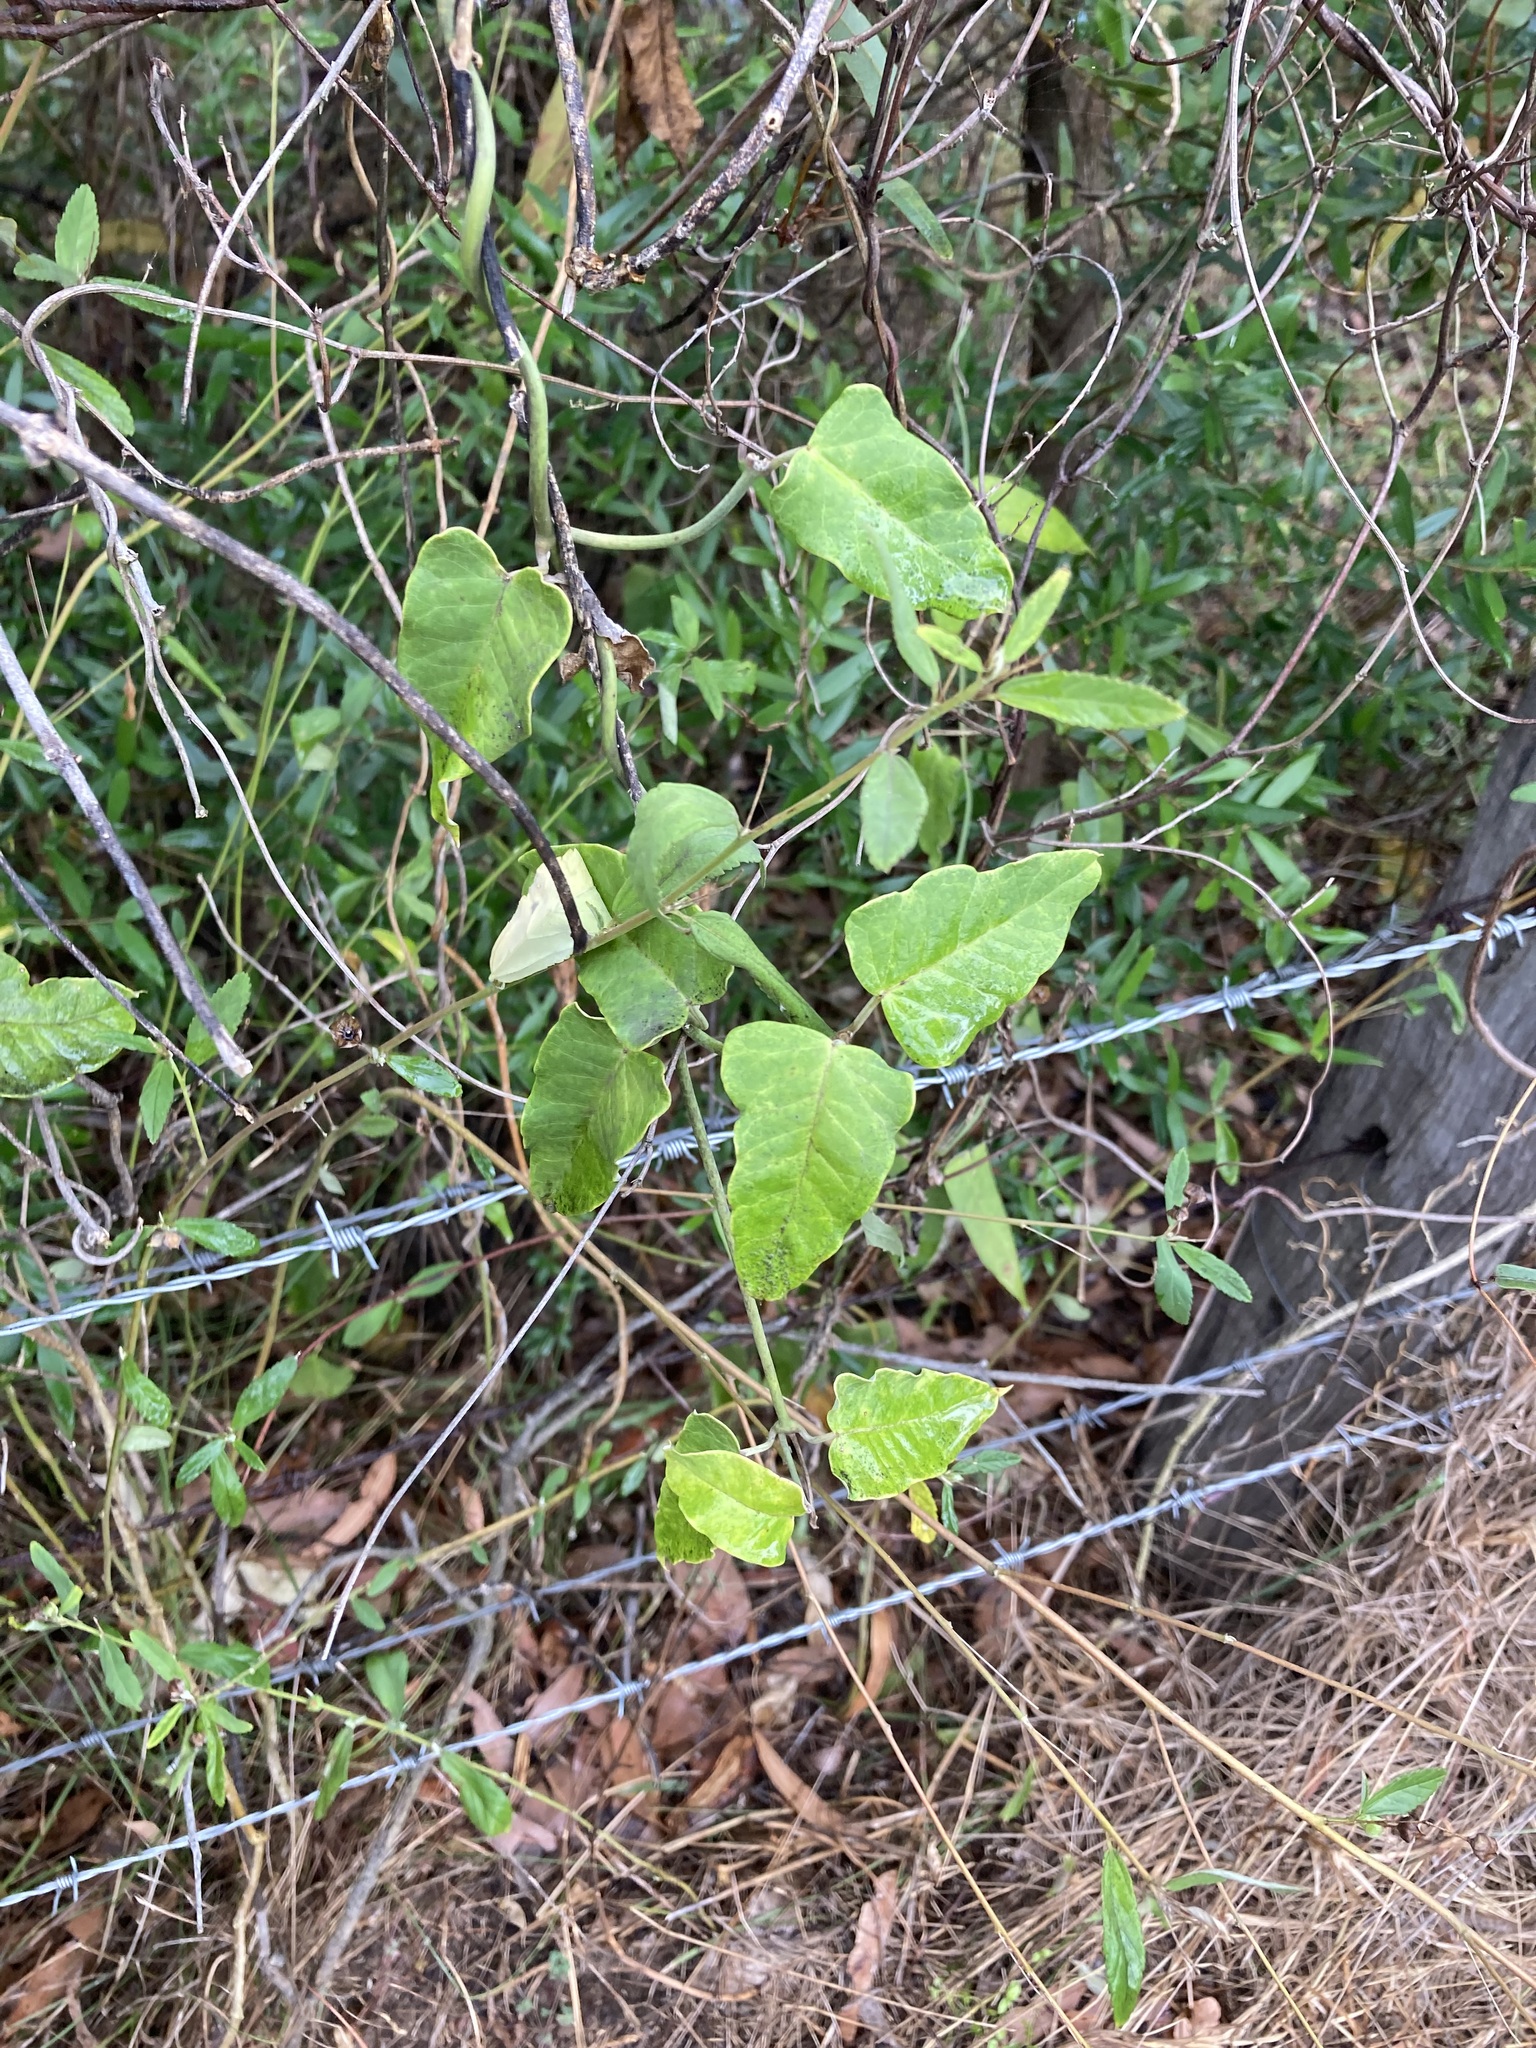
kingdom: Plantae
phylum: Tracheophyta
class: Magnoliopsida
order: Gentianales
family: Apocynaceae
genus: Araujia
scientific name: Araujia sericifera
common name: White bladderflower
